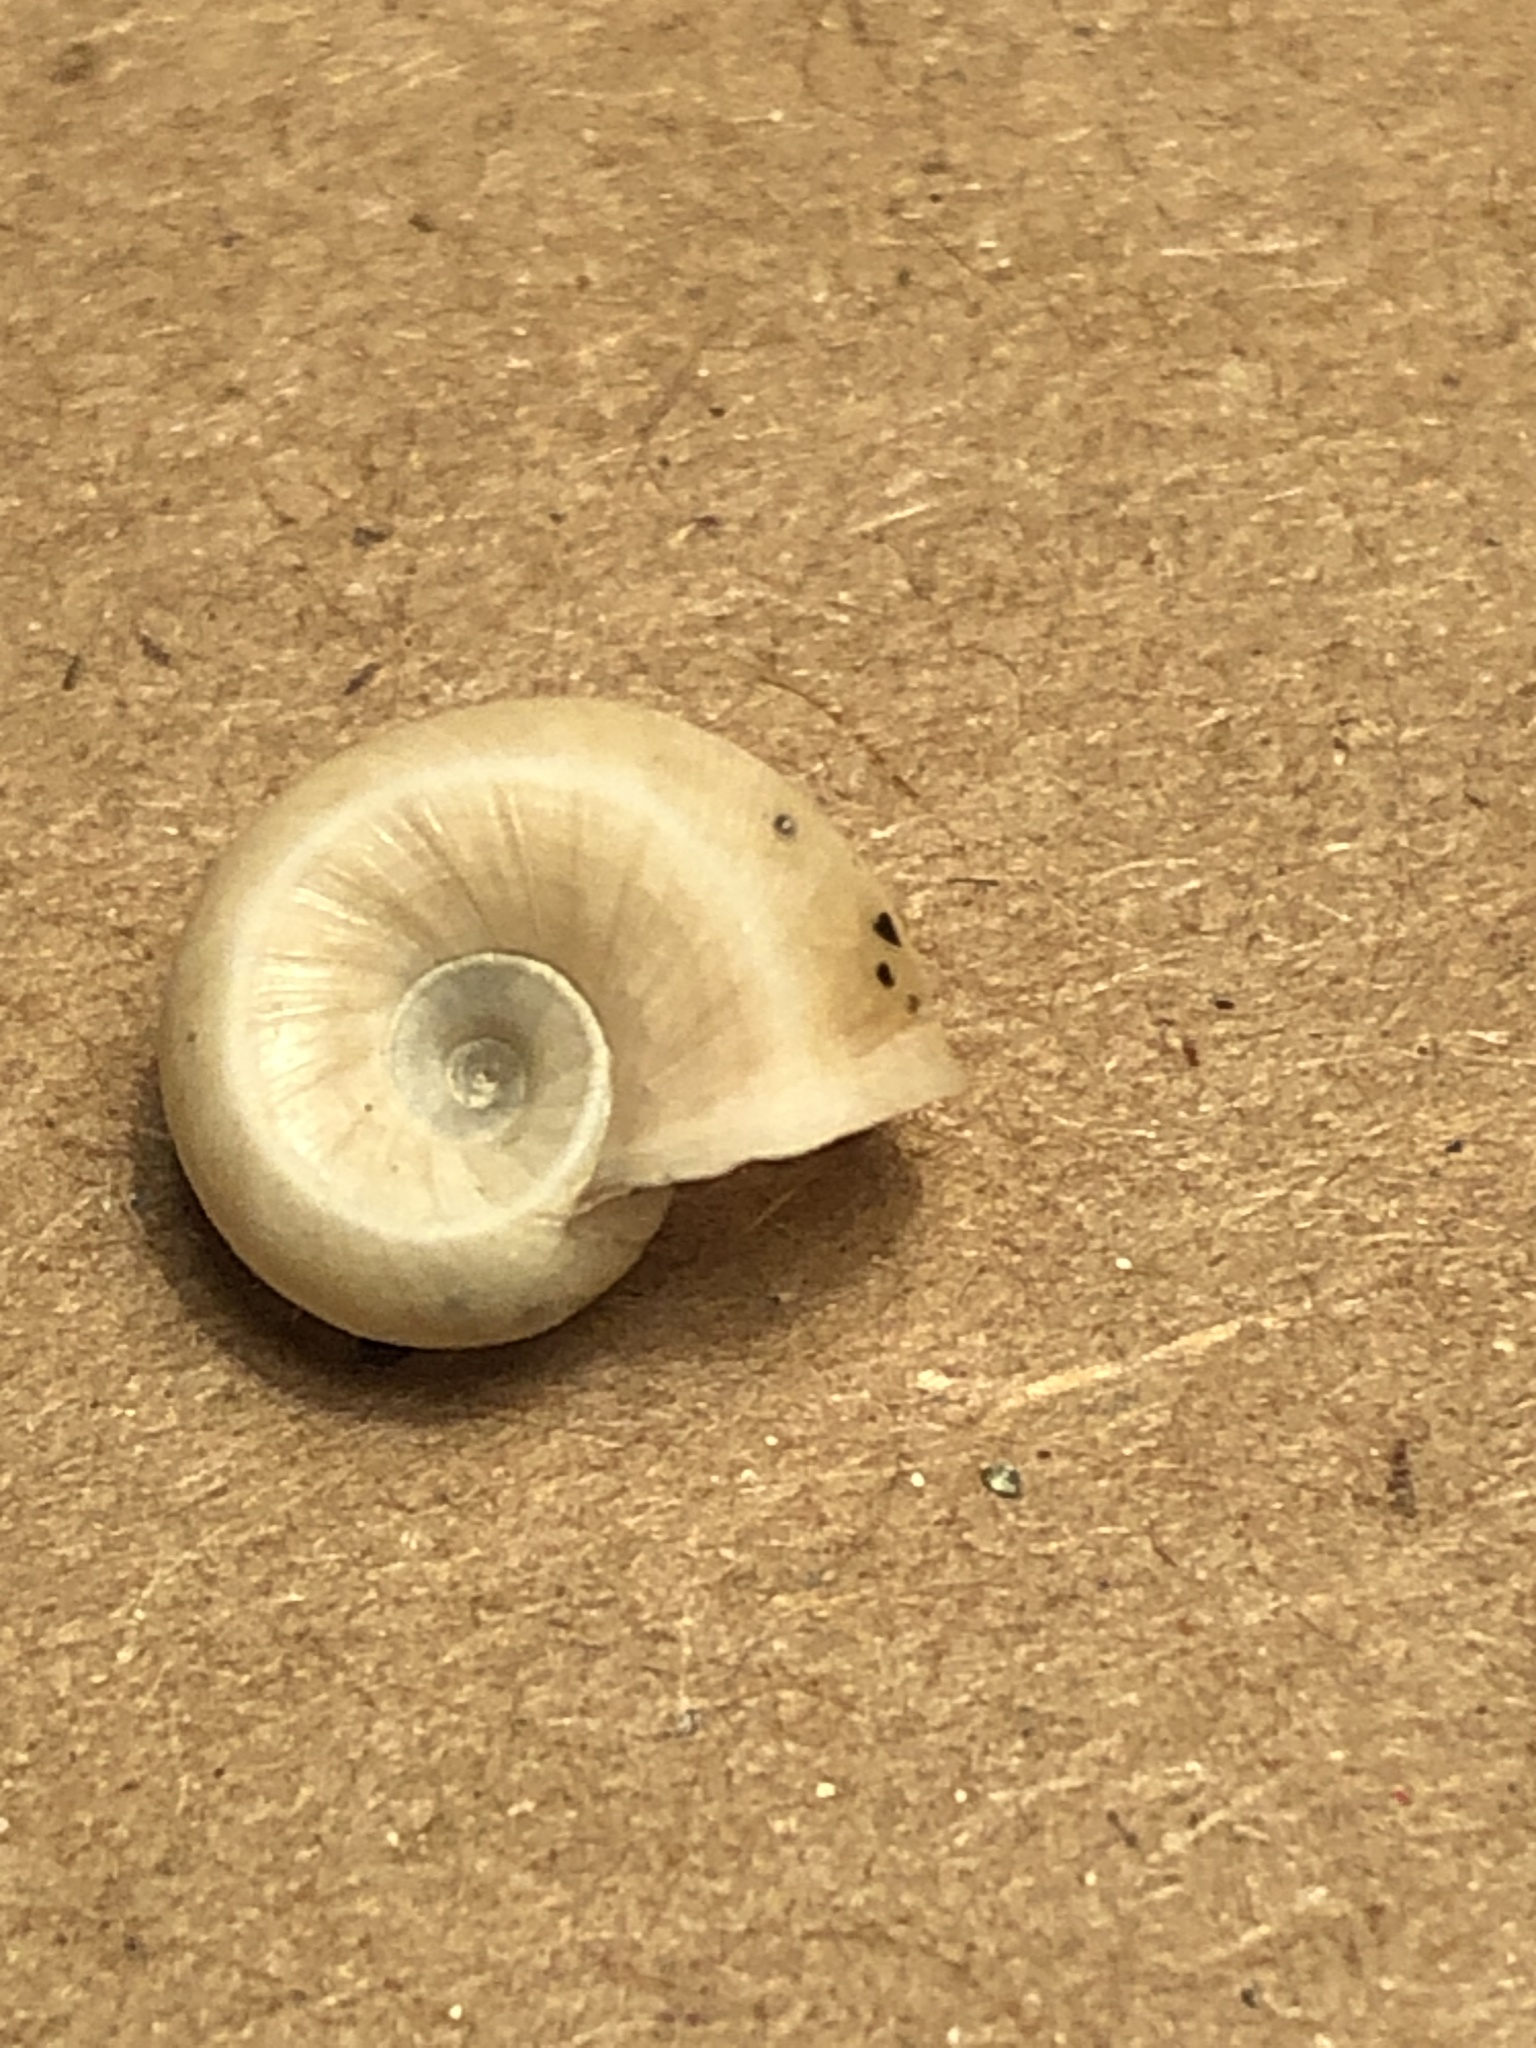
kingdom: Animalia
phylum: Mollusca
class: Gastropoda
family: Planorbidae
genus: Planorbella
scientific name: Planorbella trivolvis
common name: Marsh rams-horn
